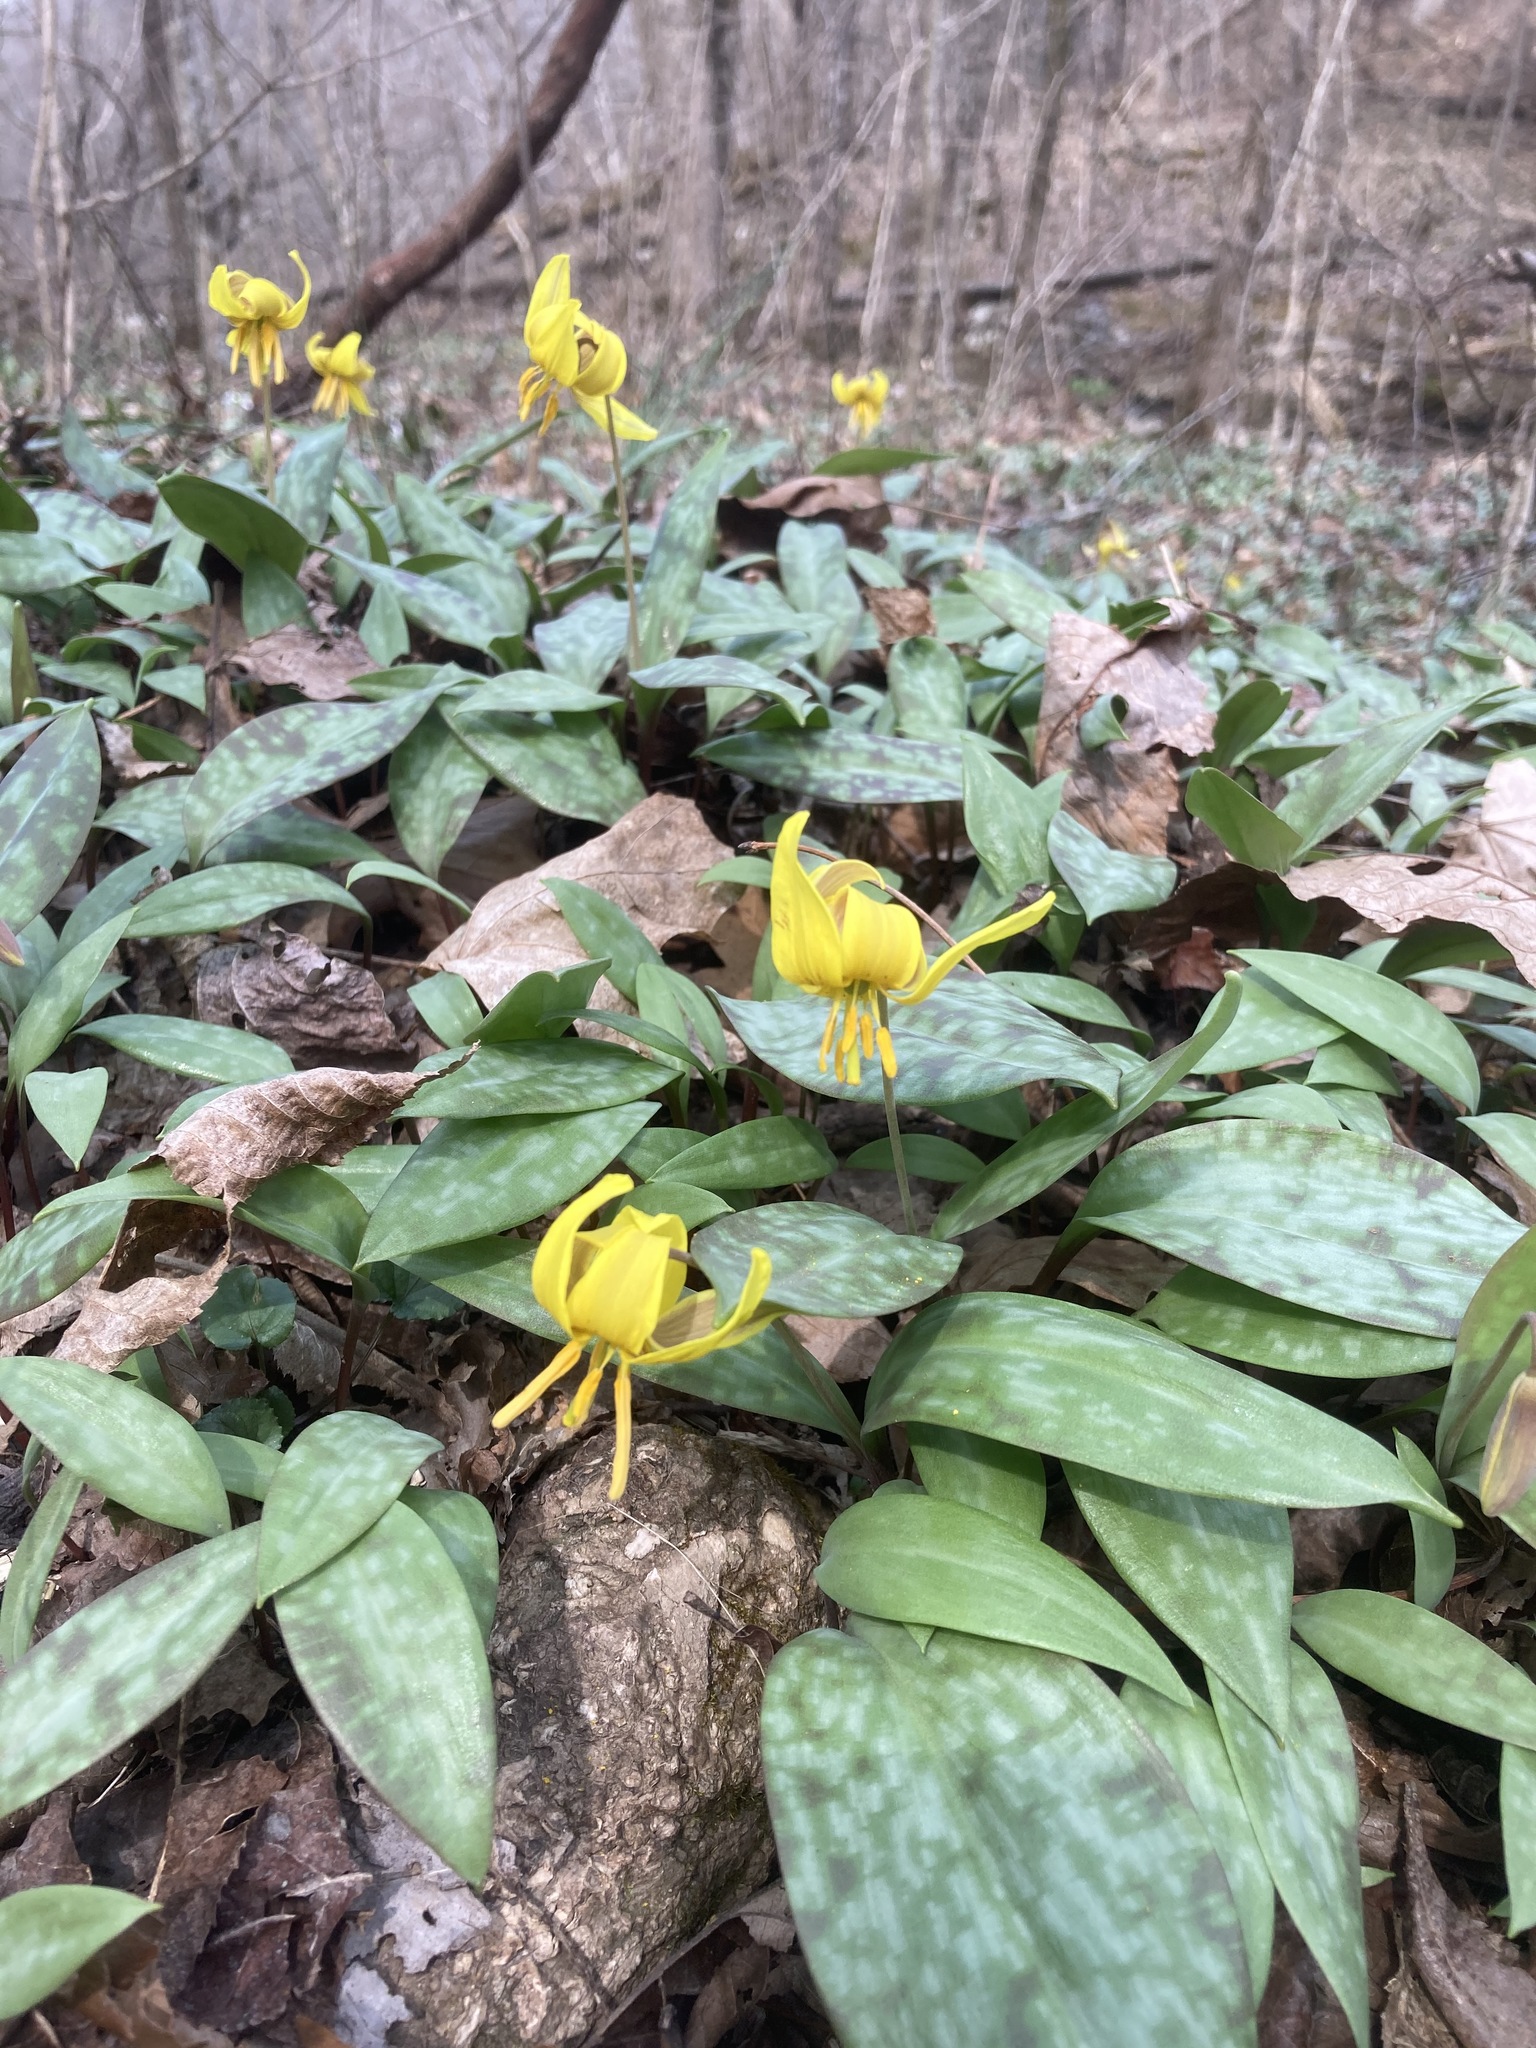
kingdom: Plantae
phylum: Tracheophyta
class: Liliopsida
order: Liliales
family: Liliaceae
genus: Erythronium
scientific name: Erythronium americanum
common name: Yellow adder's-tongue
